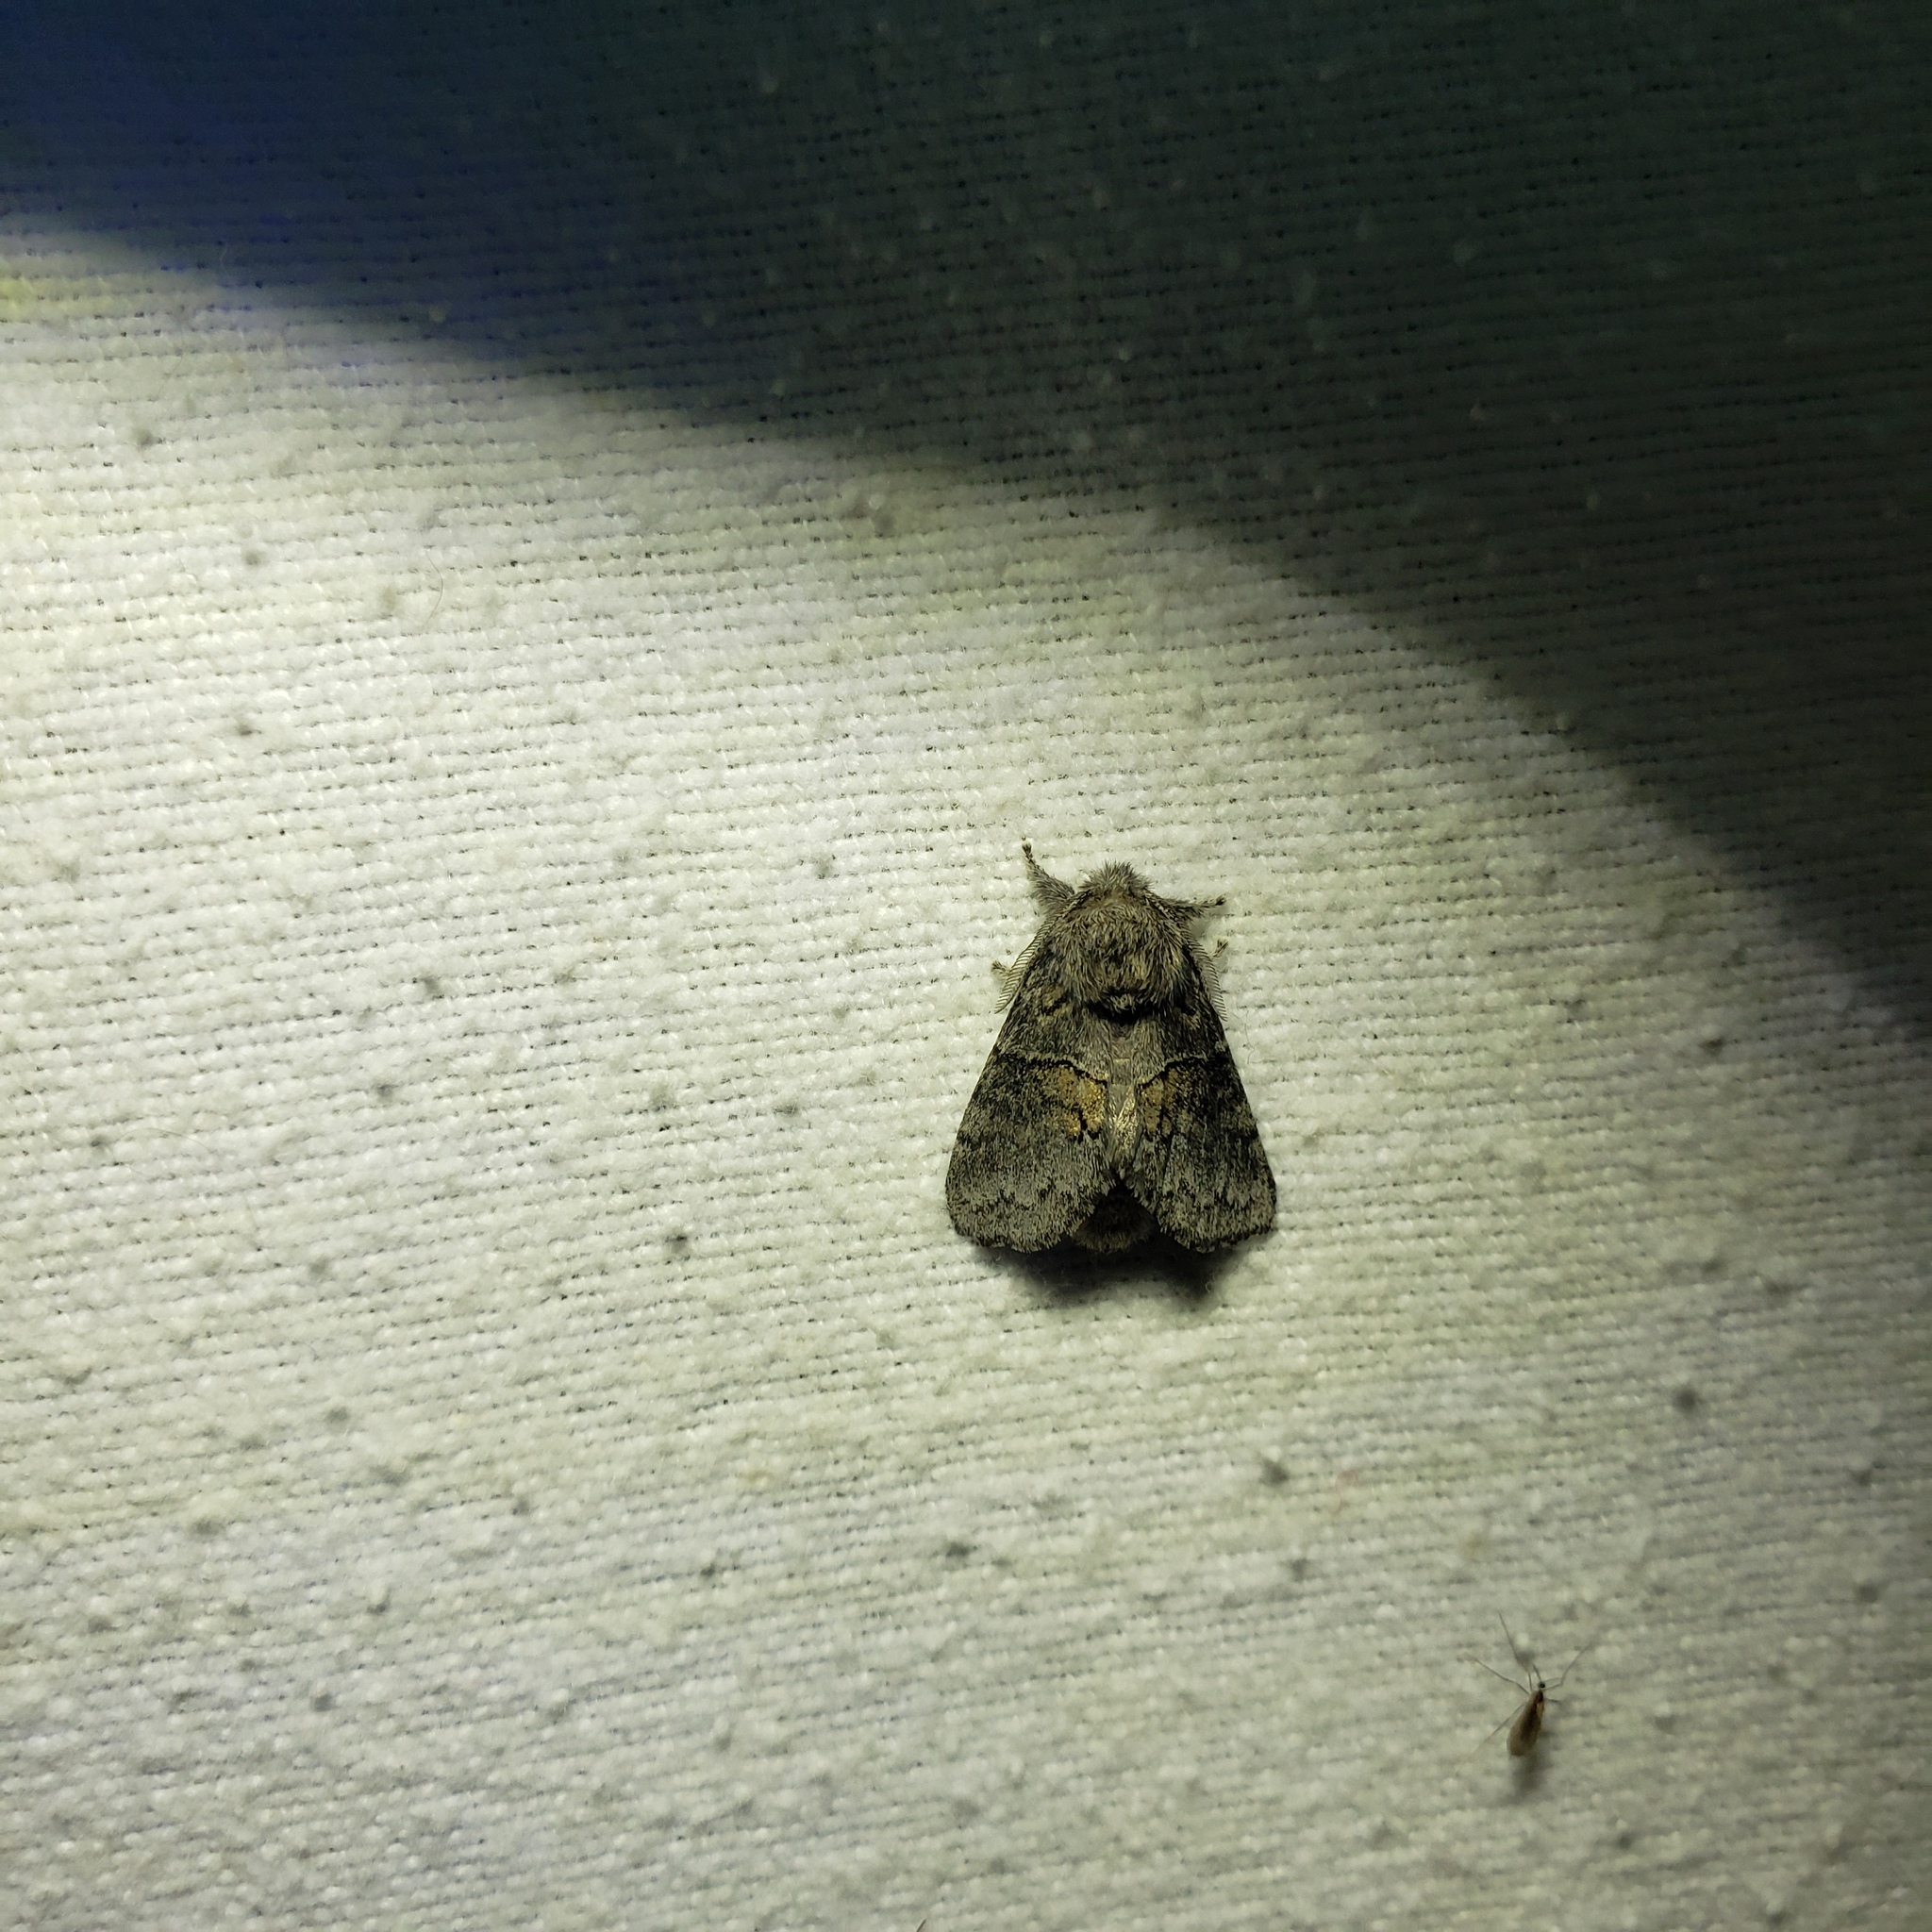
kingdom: Animalia
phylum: Arthropoda
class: Insecta
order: Lepidoptera
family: Notodontidae
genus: Gluphisia
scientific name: Gluphisia septentrionis
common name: Common gluphisia
